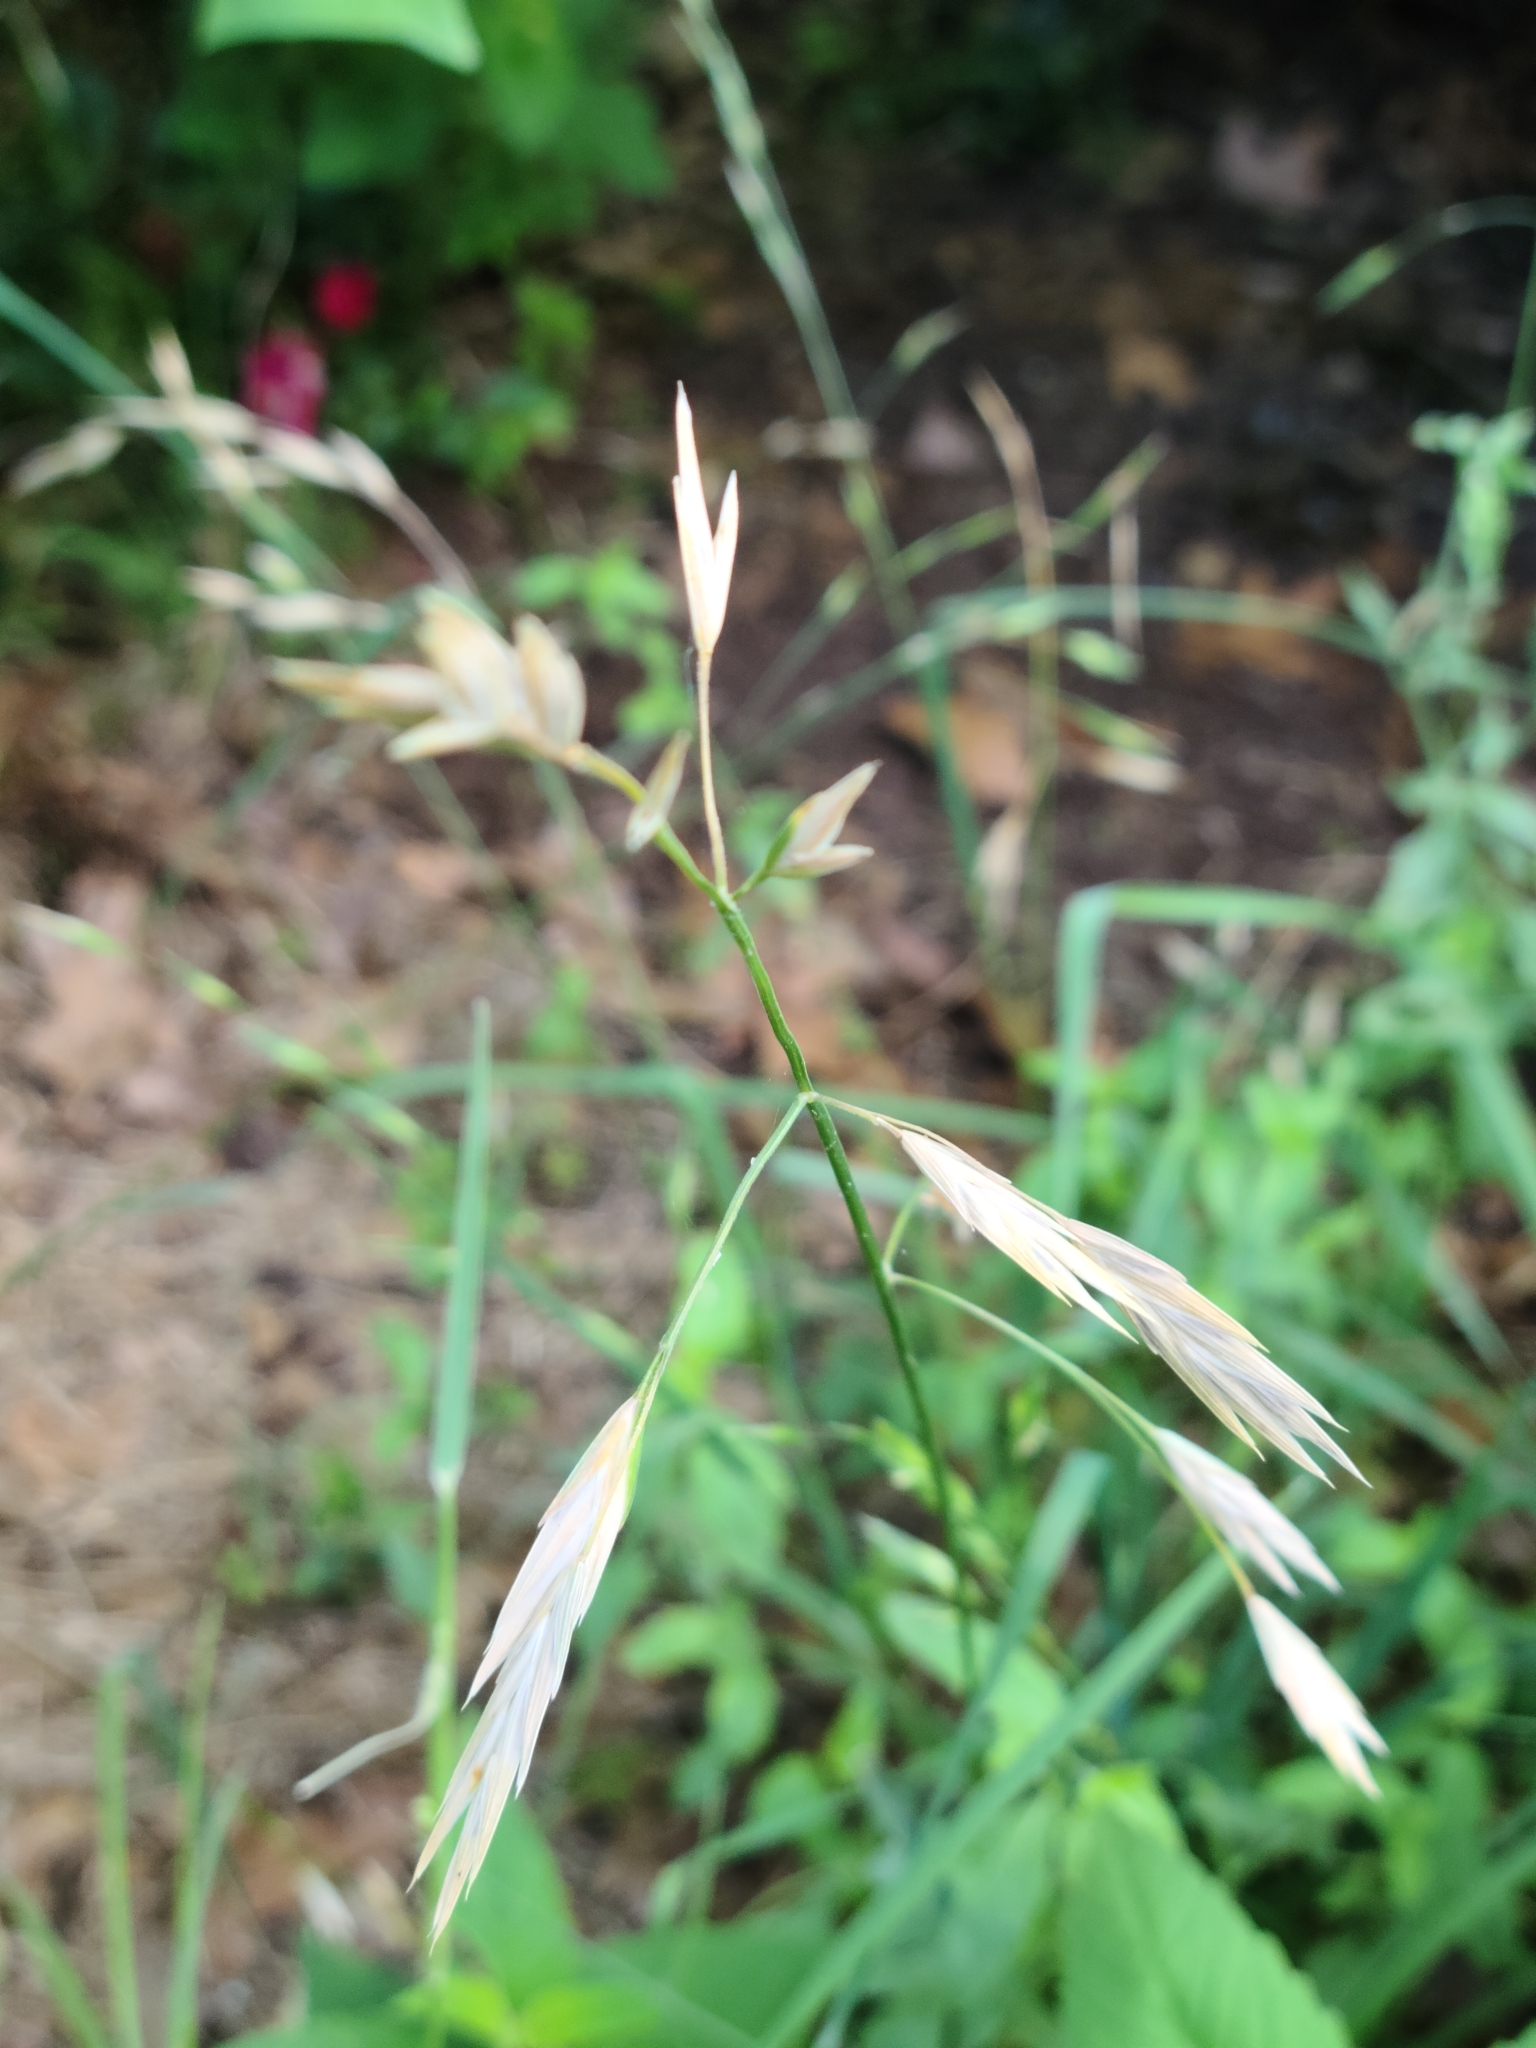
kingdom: Plantae
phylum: Tracheophyta
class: Liliopsida
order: Poales
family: Poaceae
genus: Bromus
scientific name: Bromus catharticus
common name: Rescuegrass
